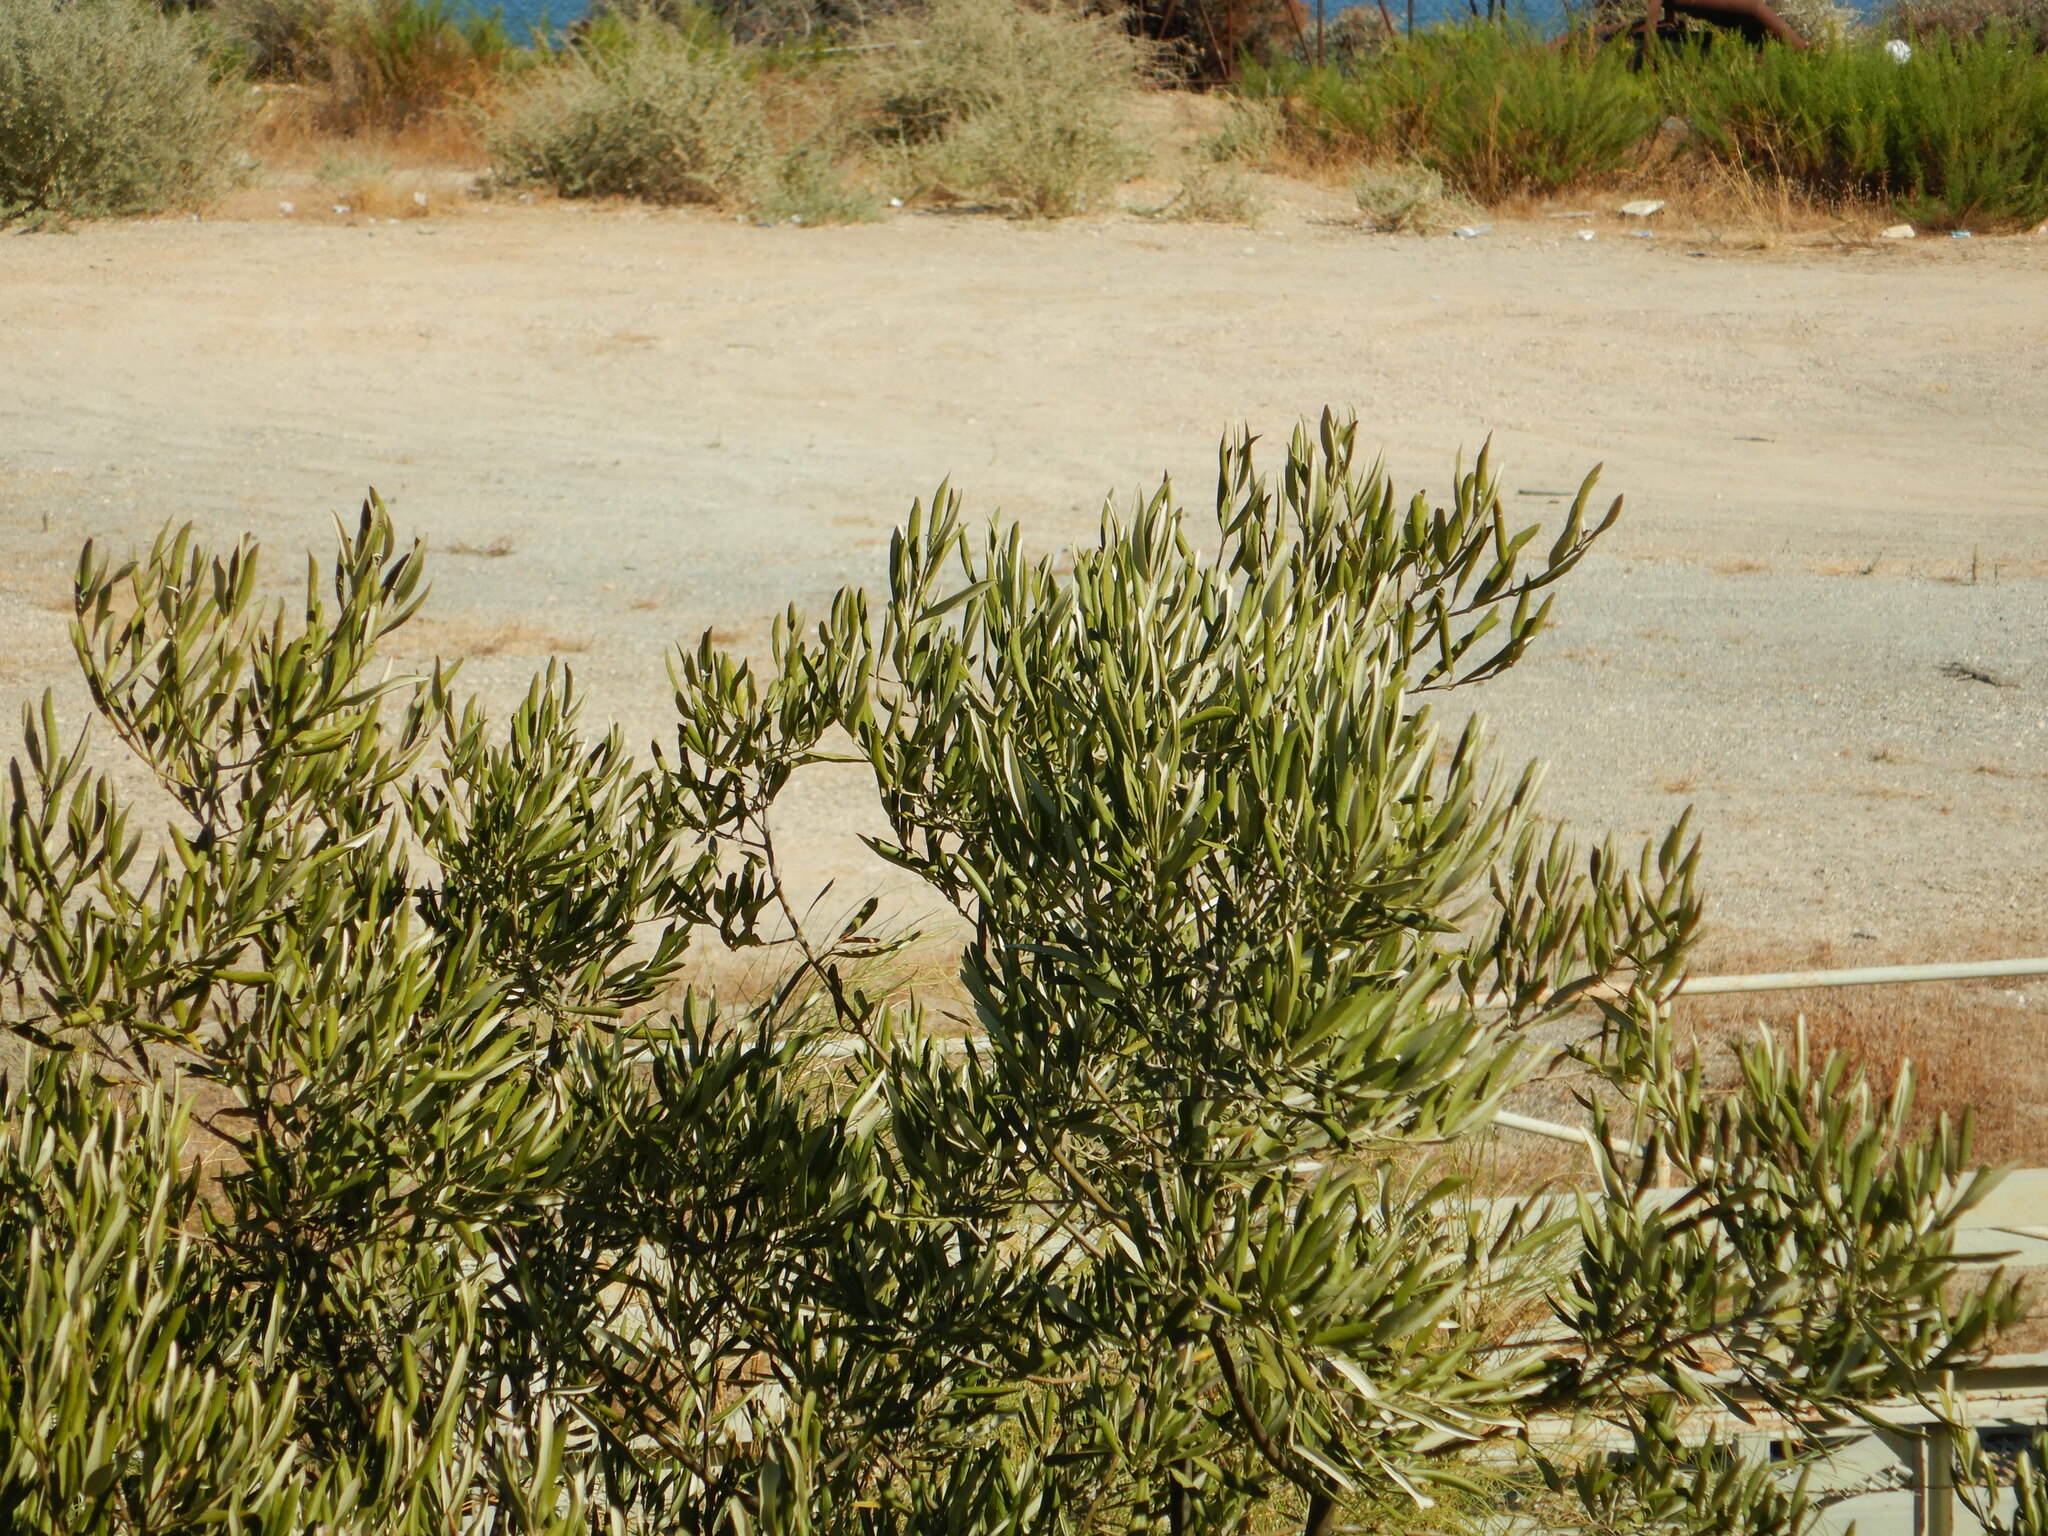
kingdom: Plantae
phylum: Tracheophyta
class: Magnoliopsida
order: Lamiales
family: Oleaceae
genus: Olea
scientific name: Olea europaea
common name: Olive
